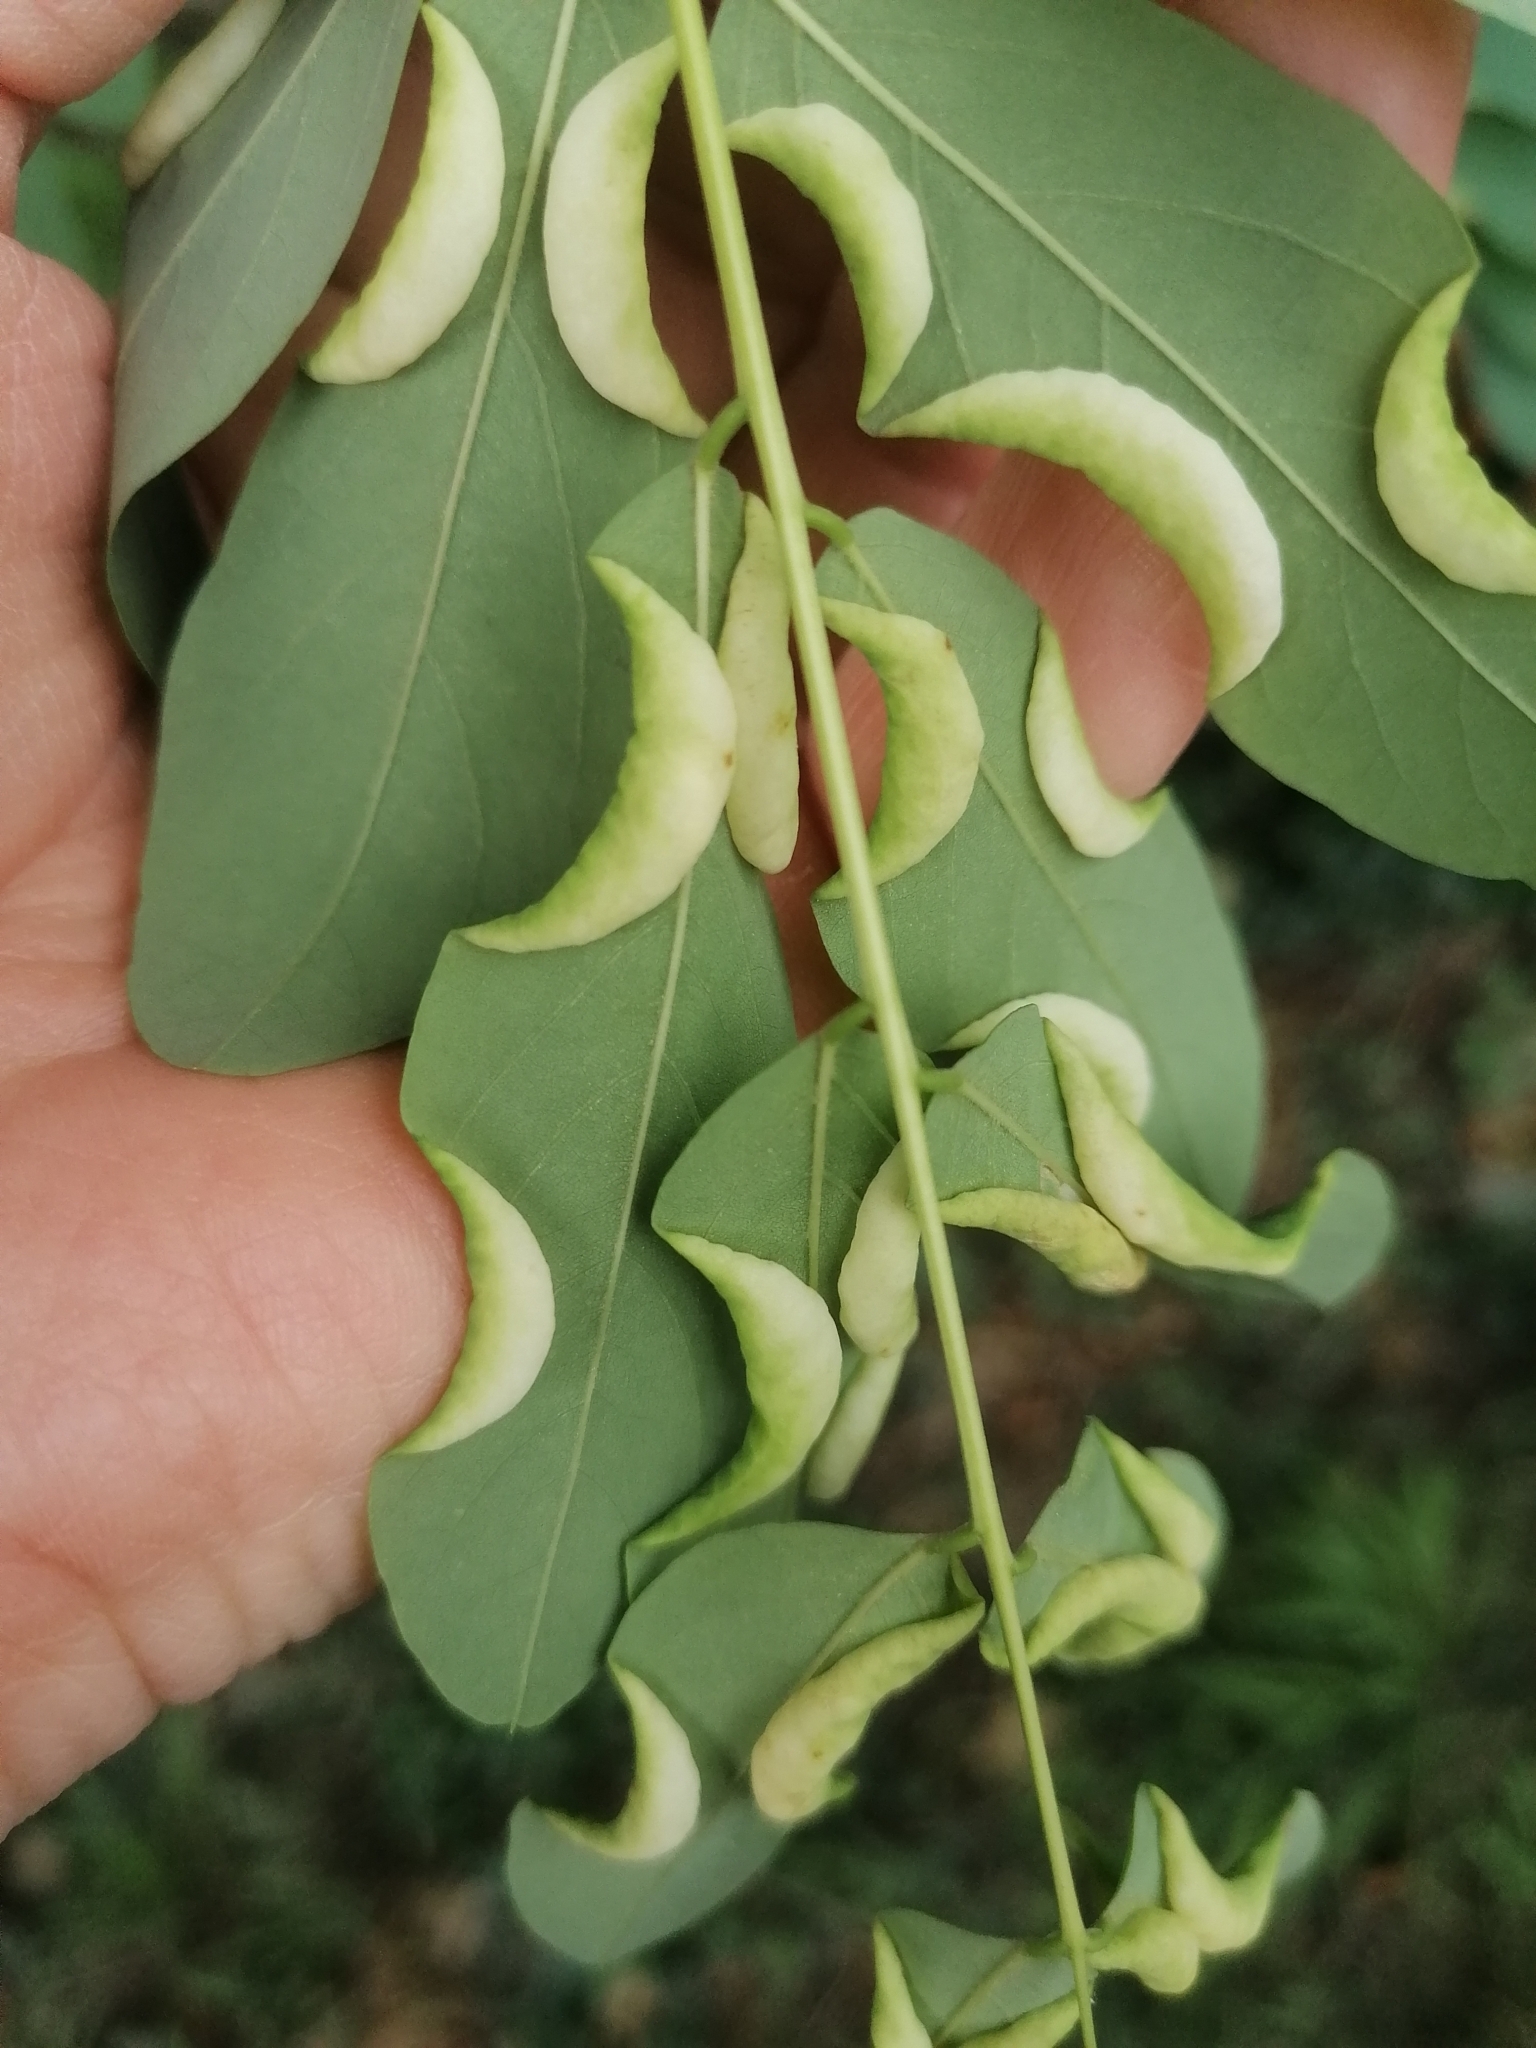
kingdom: Animalia
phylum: Arthropoda
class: Insecta
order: Diptera
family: Cecidomyiidae
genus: Obolodiplosis
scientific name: Obolodiplosis robiniae
